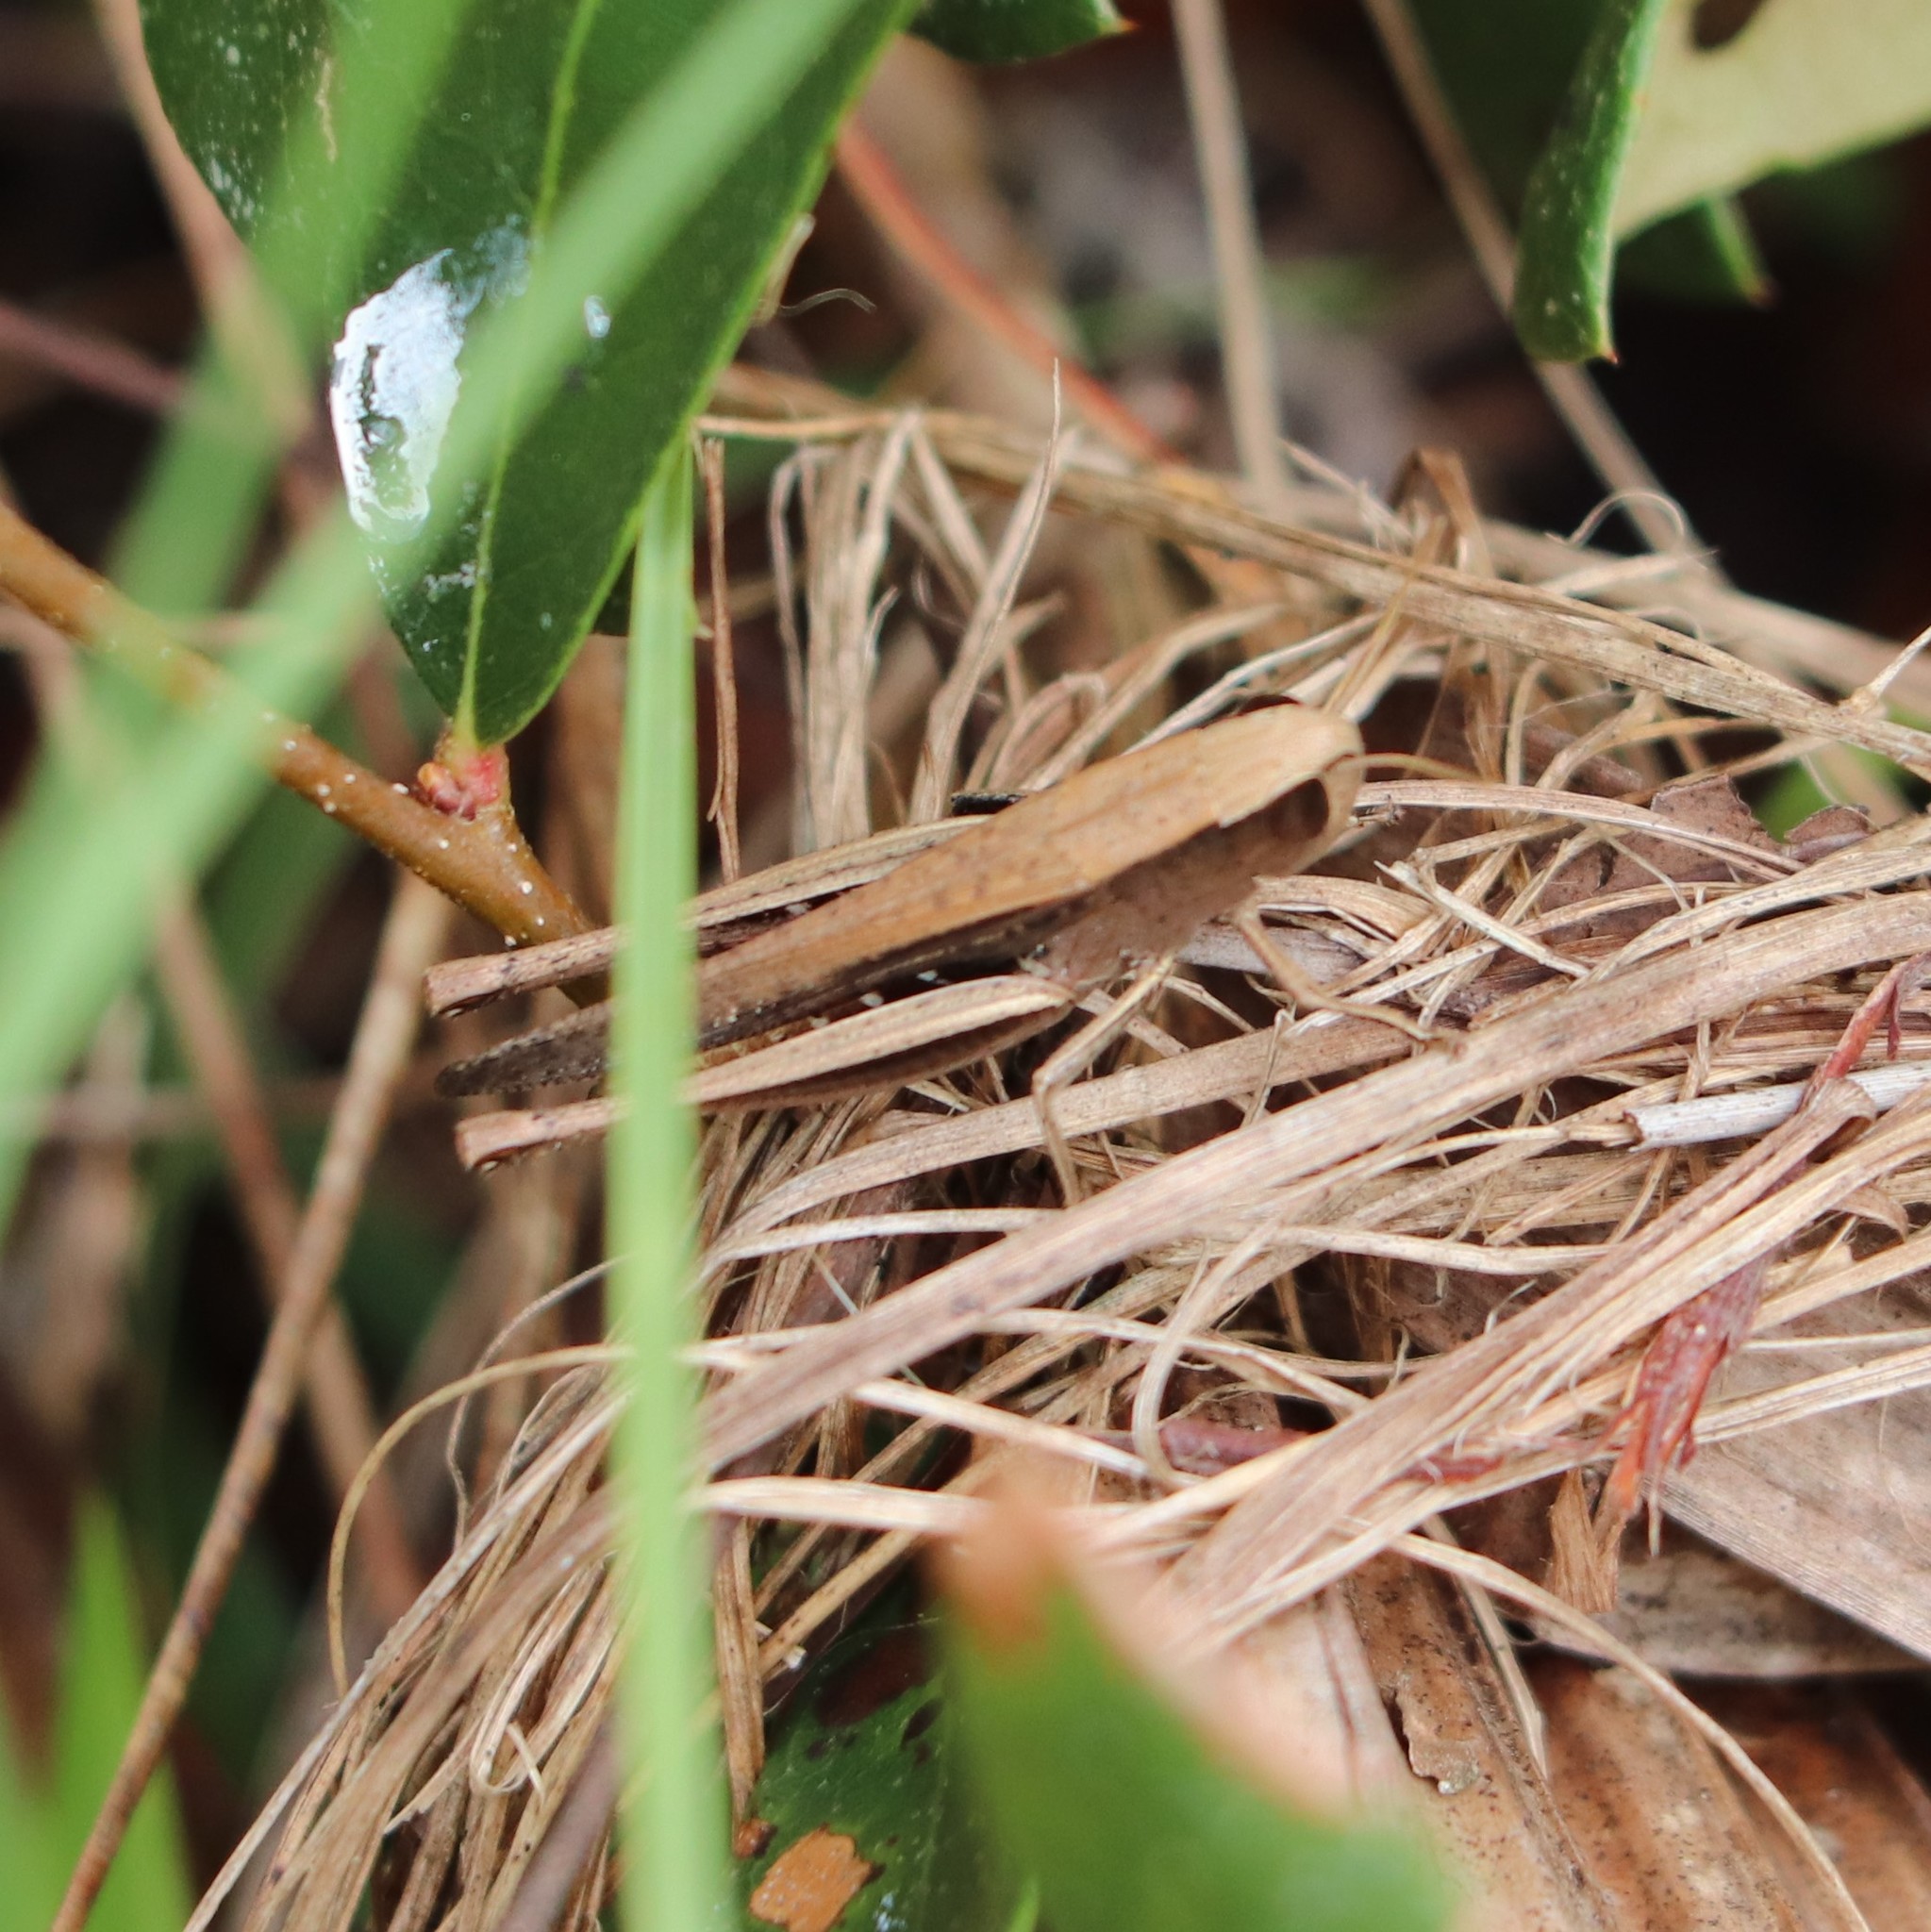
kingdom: Animalia
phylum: Arthropoda
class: Insecta
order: Orthoptera
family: Acrididae
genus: Amblytropidia
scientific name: Amblytropidia mysteca
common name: Brown winter grasshopper
